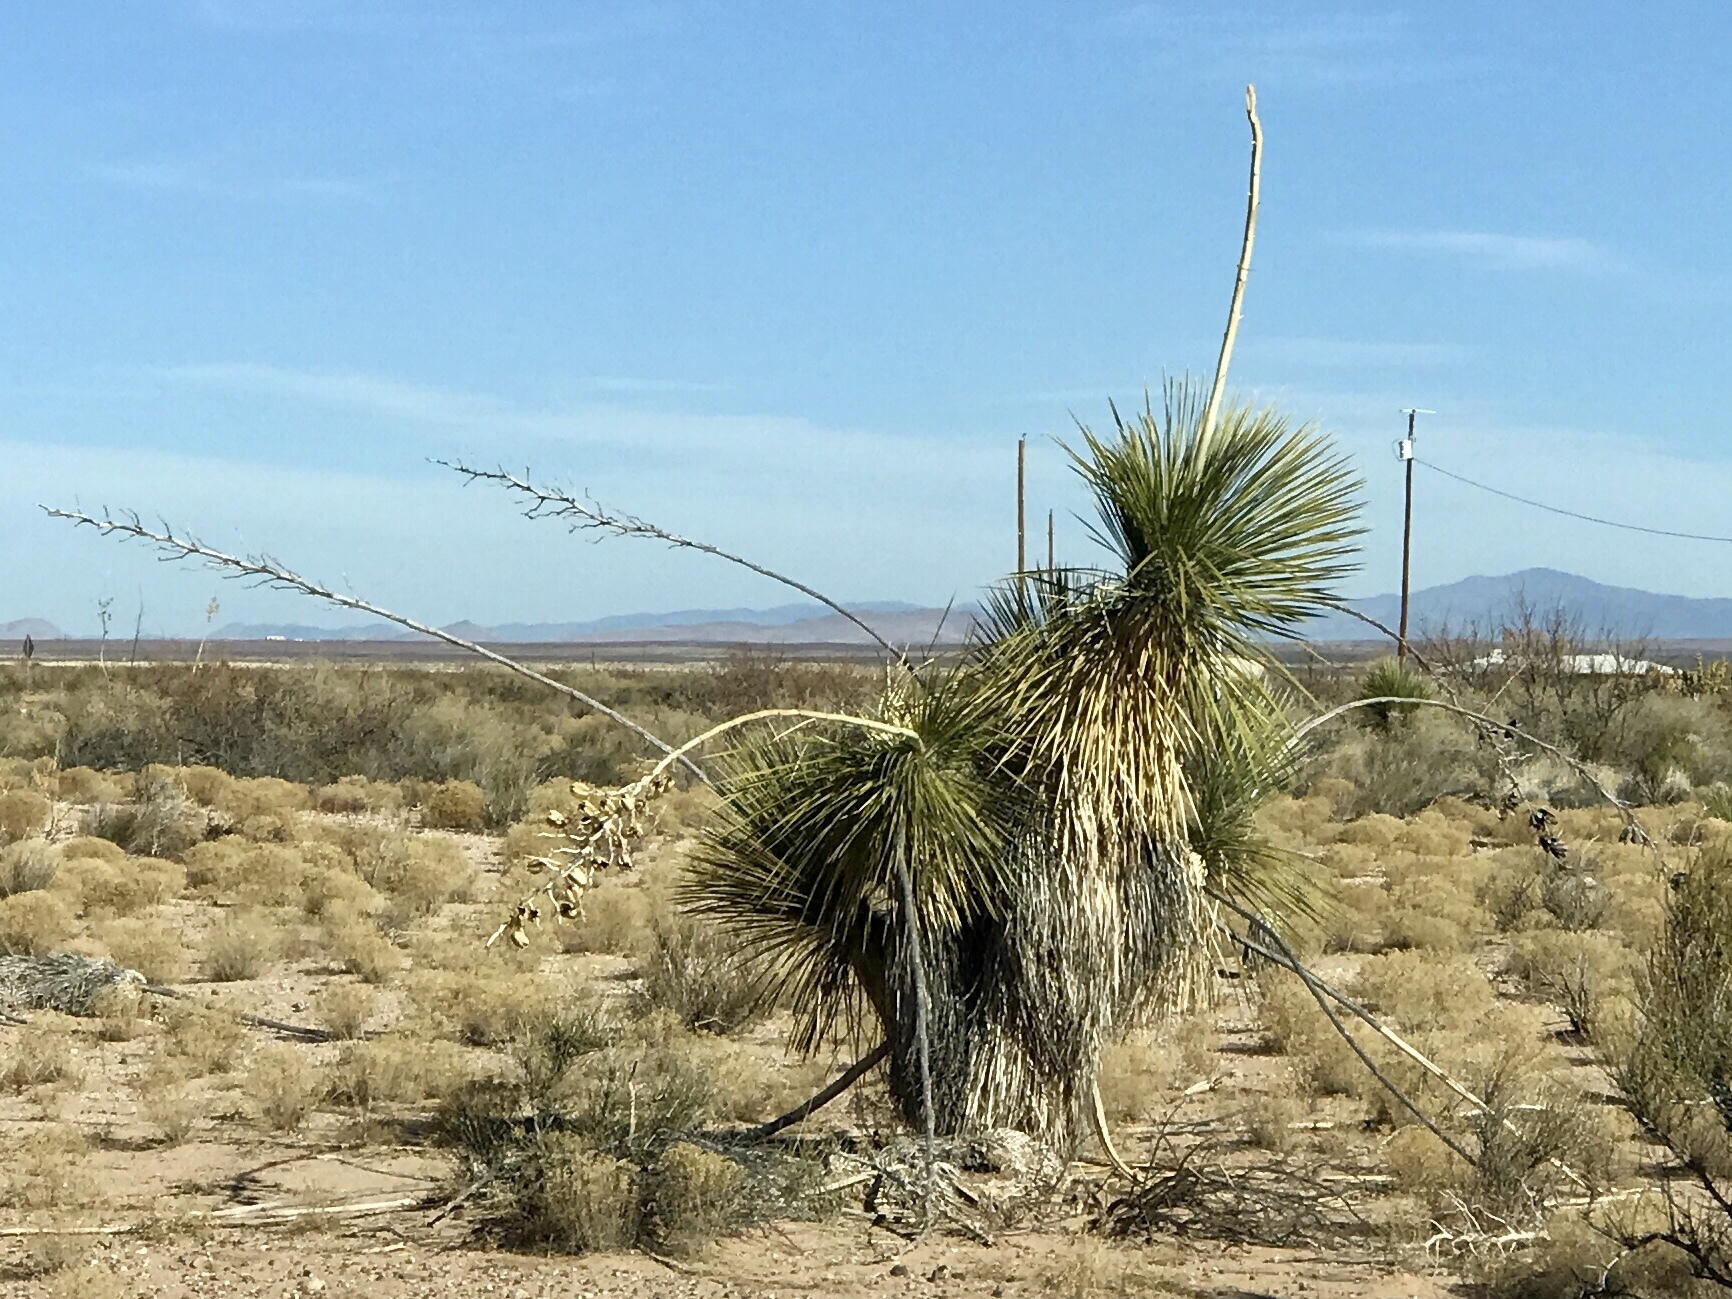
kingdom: Plantae
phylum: Tracheophyta
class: Liliopsida
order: Asparagales
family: Asparagaceae
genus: Yucca
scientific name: Yucca elata
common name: Palmella
